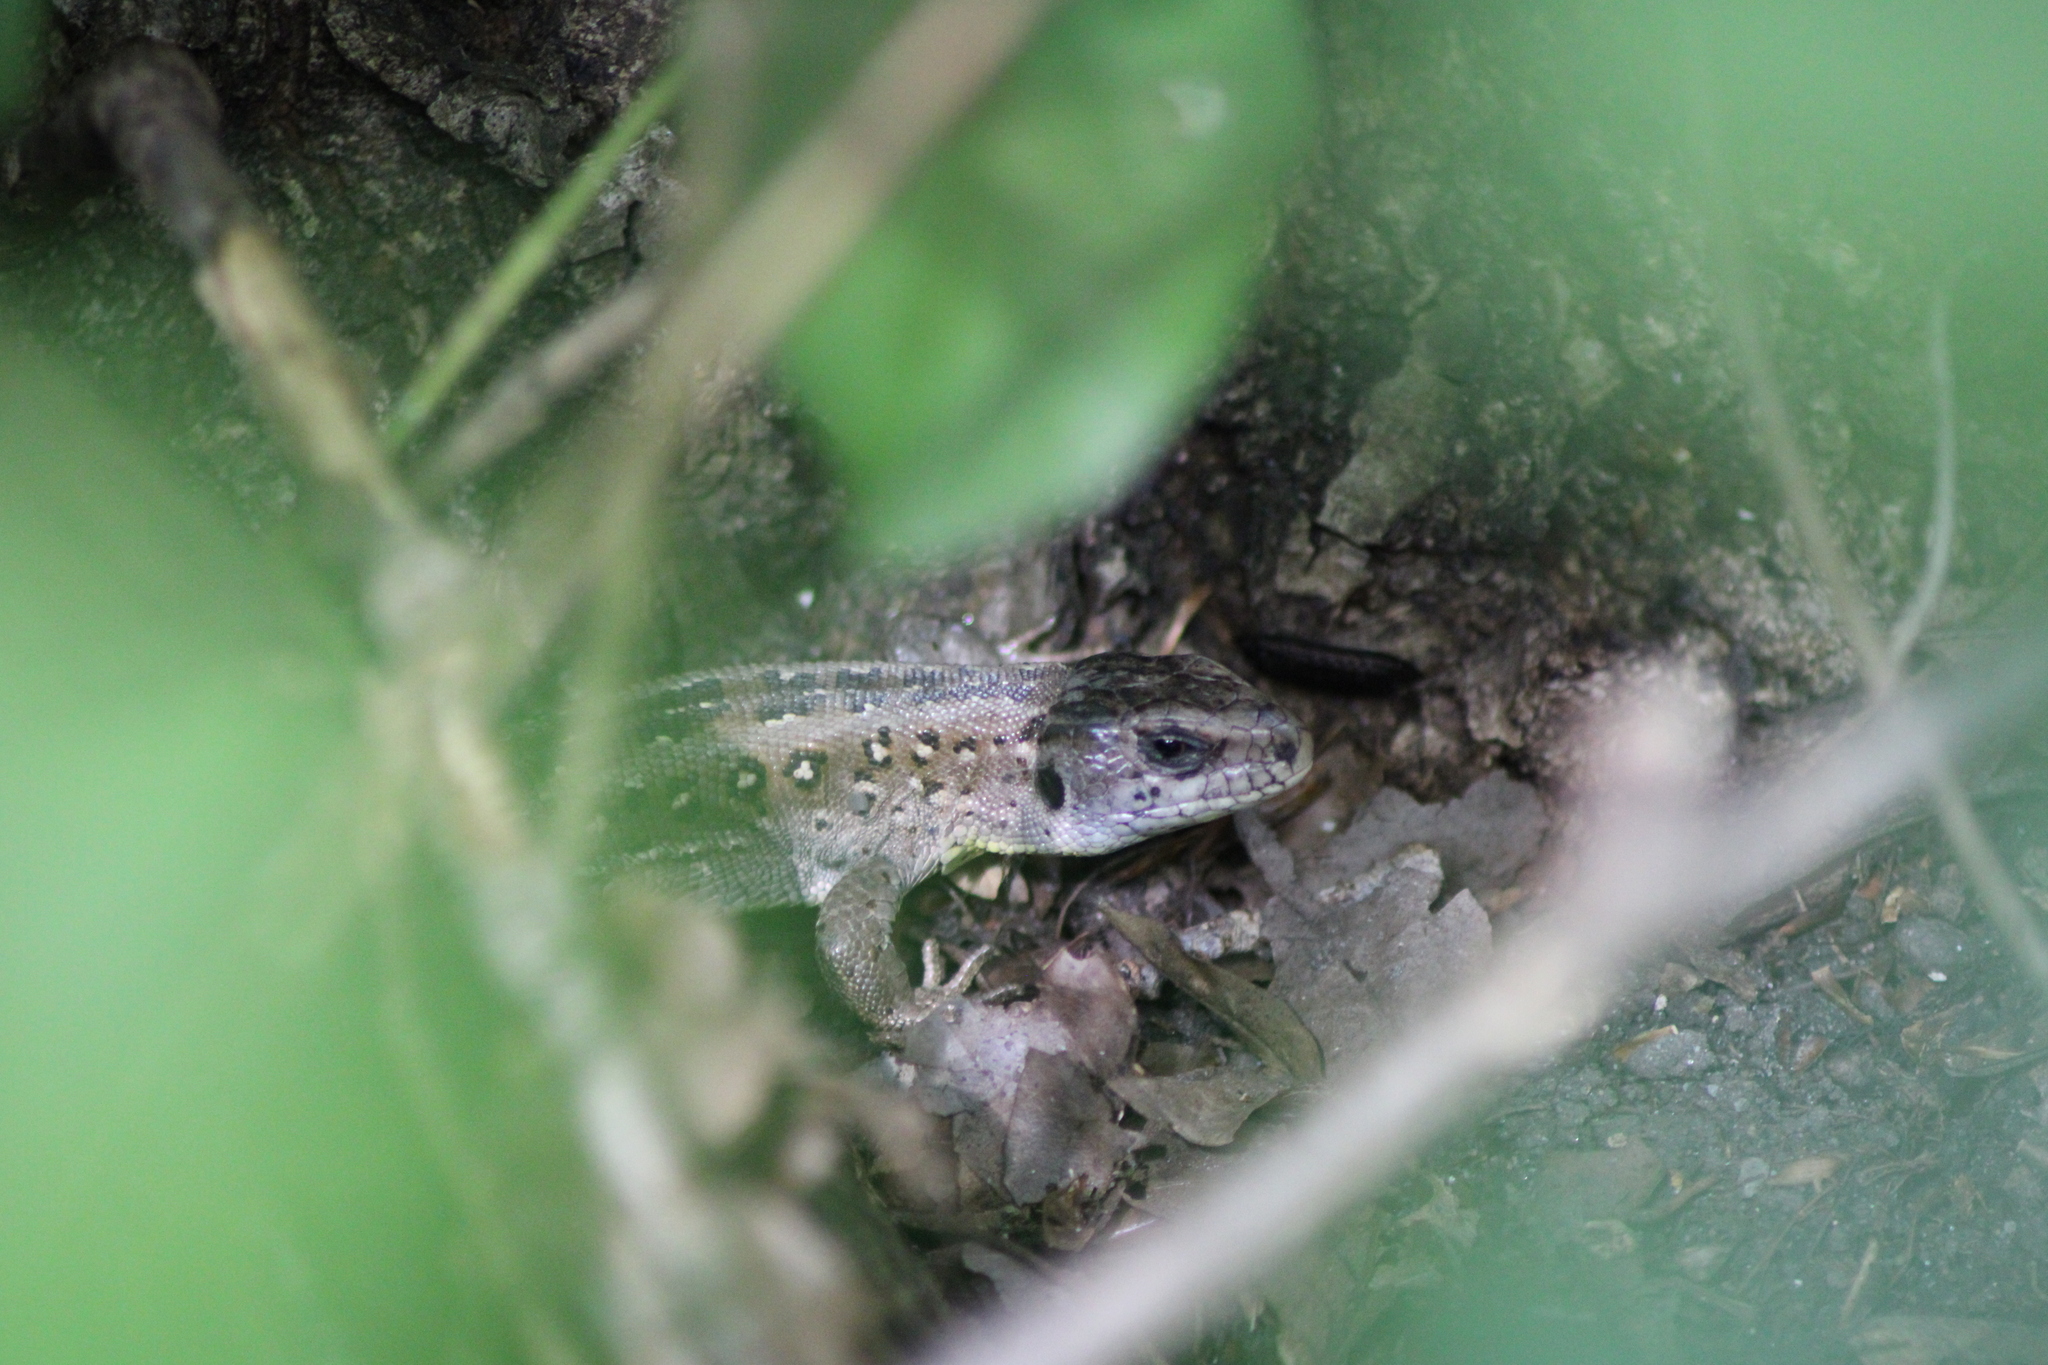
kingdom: Animalia
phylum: Chordata
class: Squamata
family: Lacertidae
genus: Lacerta
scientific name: Lacerta agilis
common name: Sand lizard
